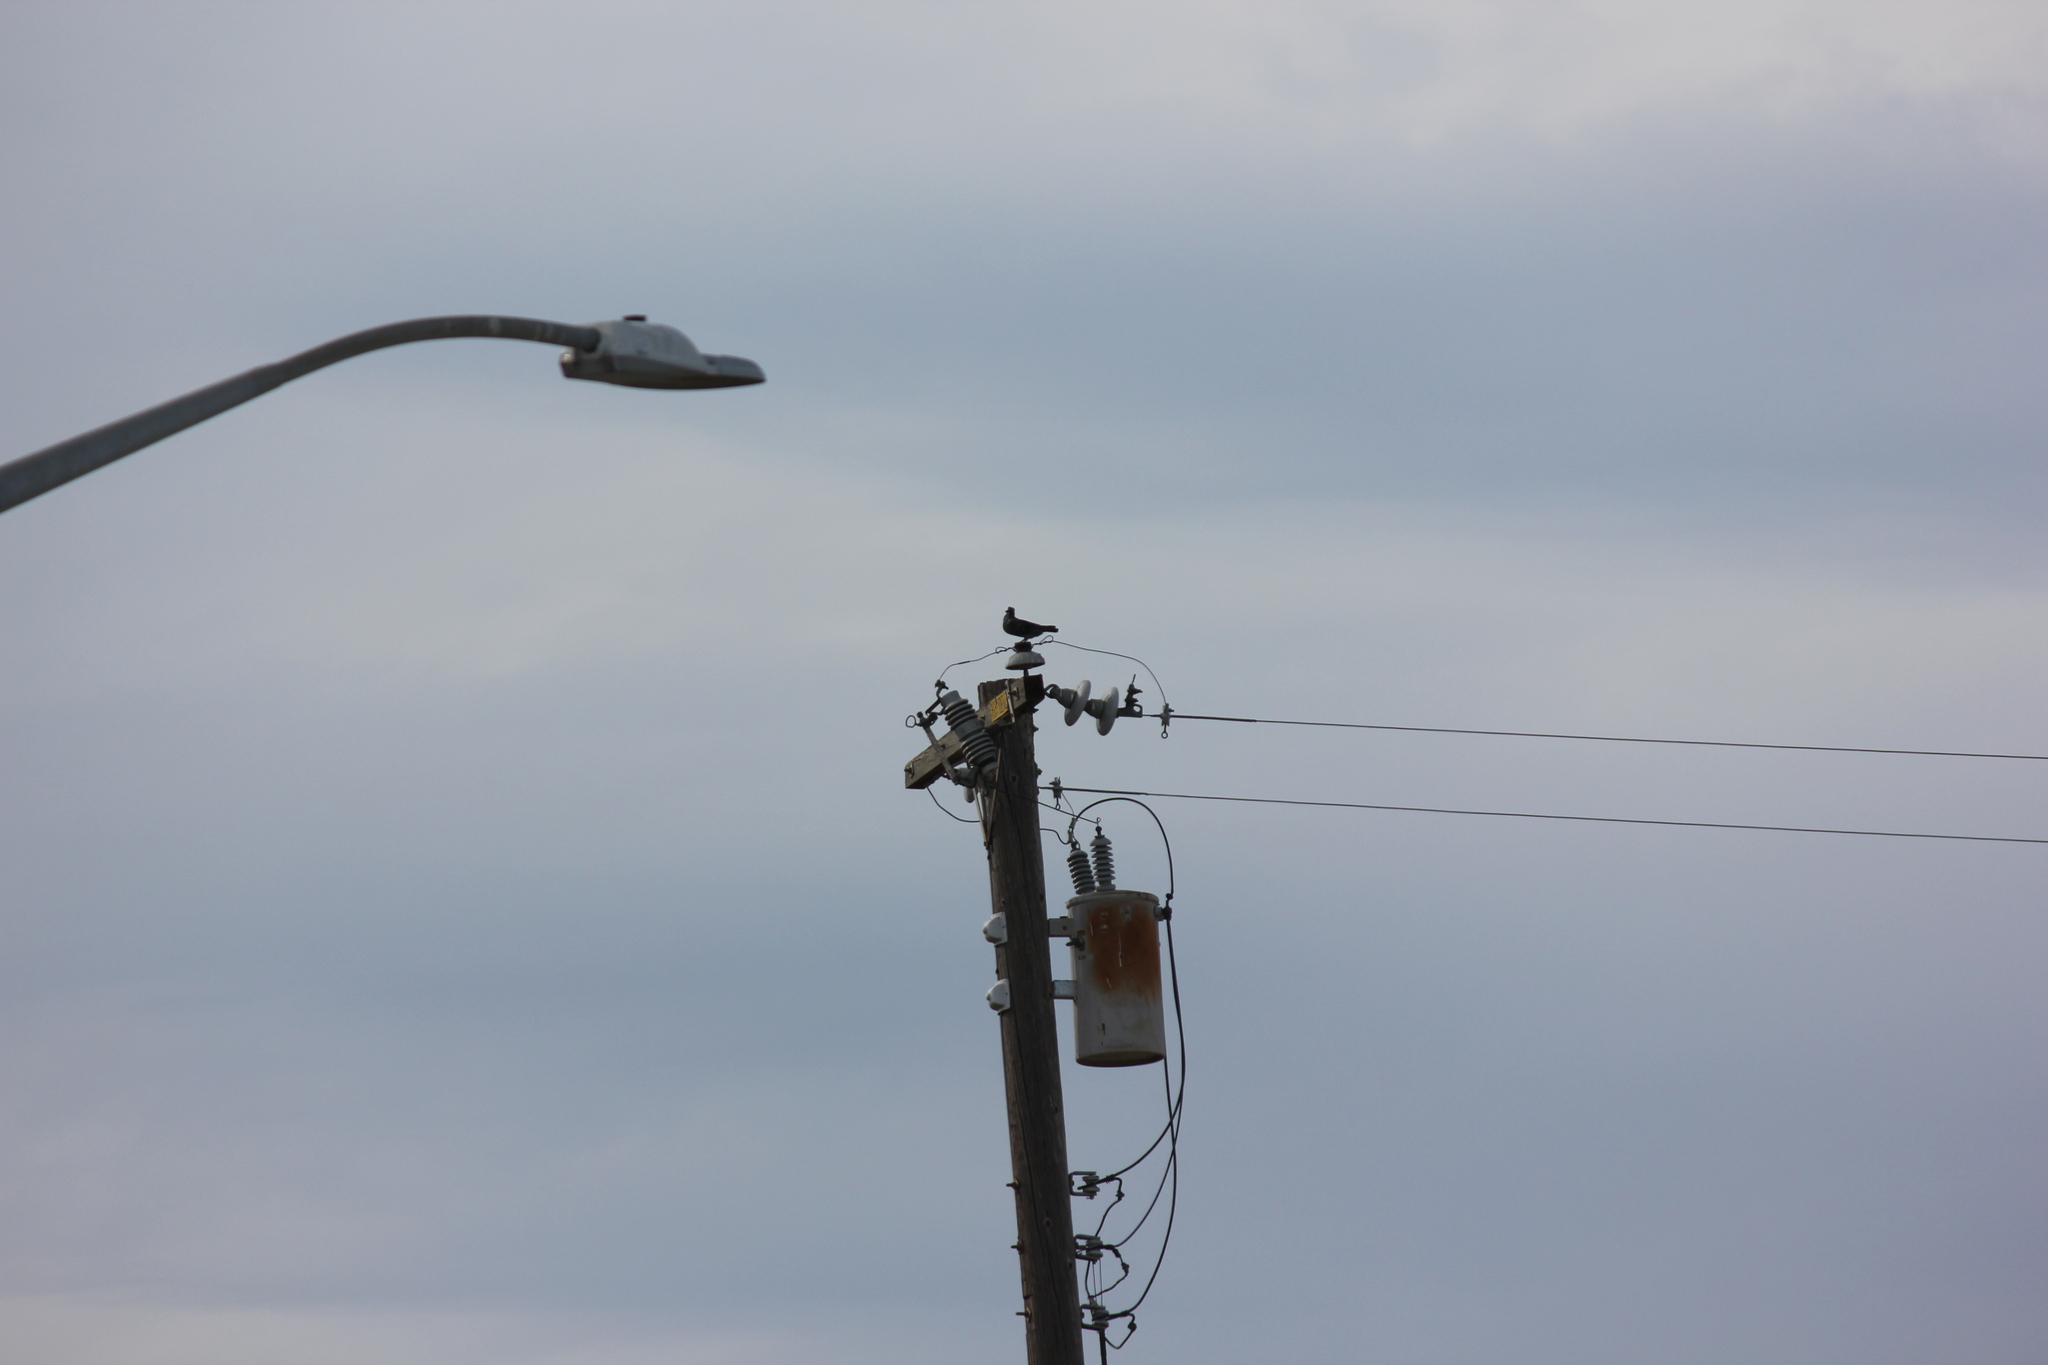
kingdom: Animalia
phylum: Chordata
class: Aves
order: Columbiformes
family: Columbidae
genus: Columba
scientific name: Columba livia
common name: Rock pigeon
